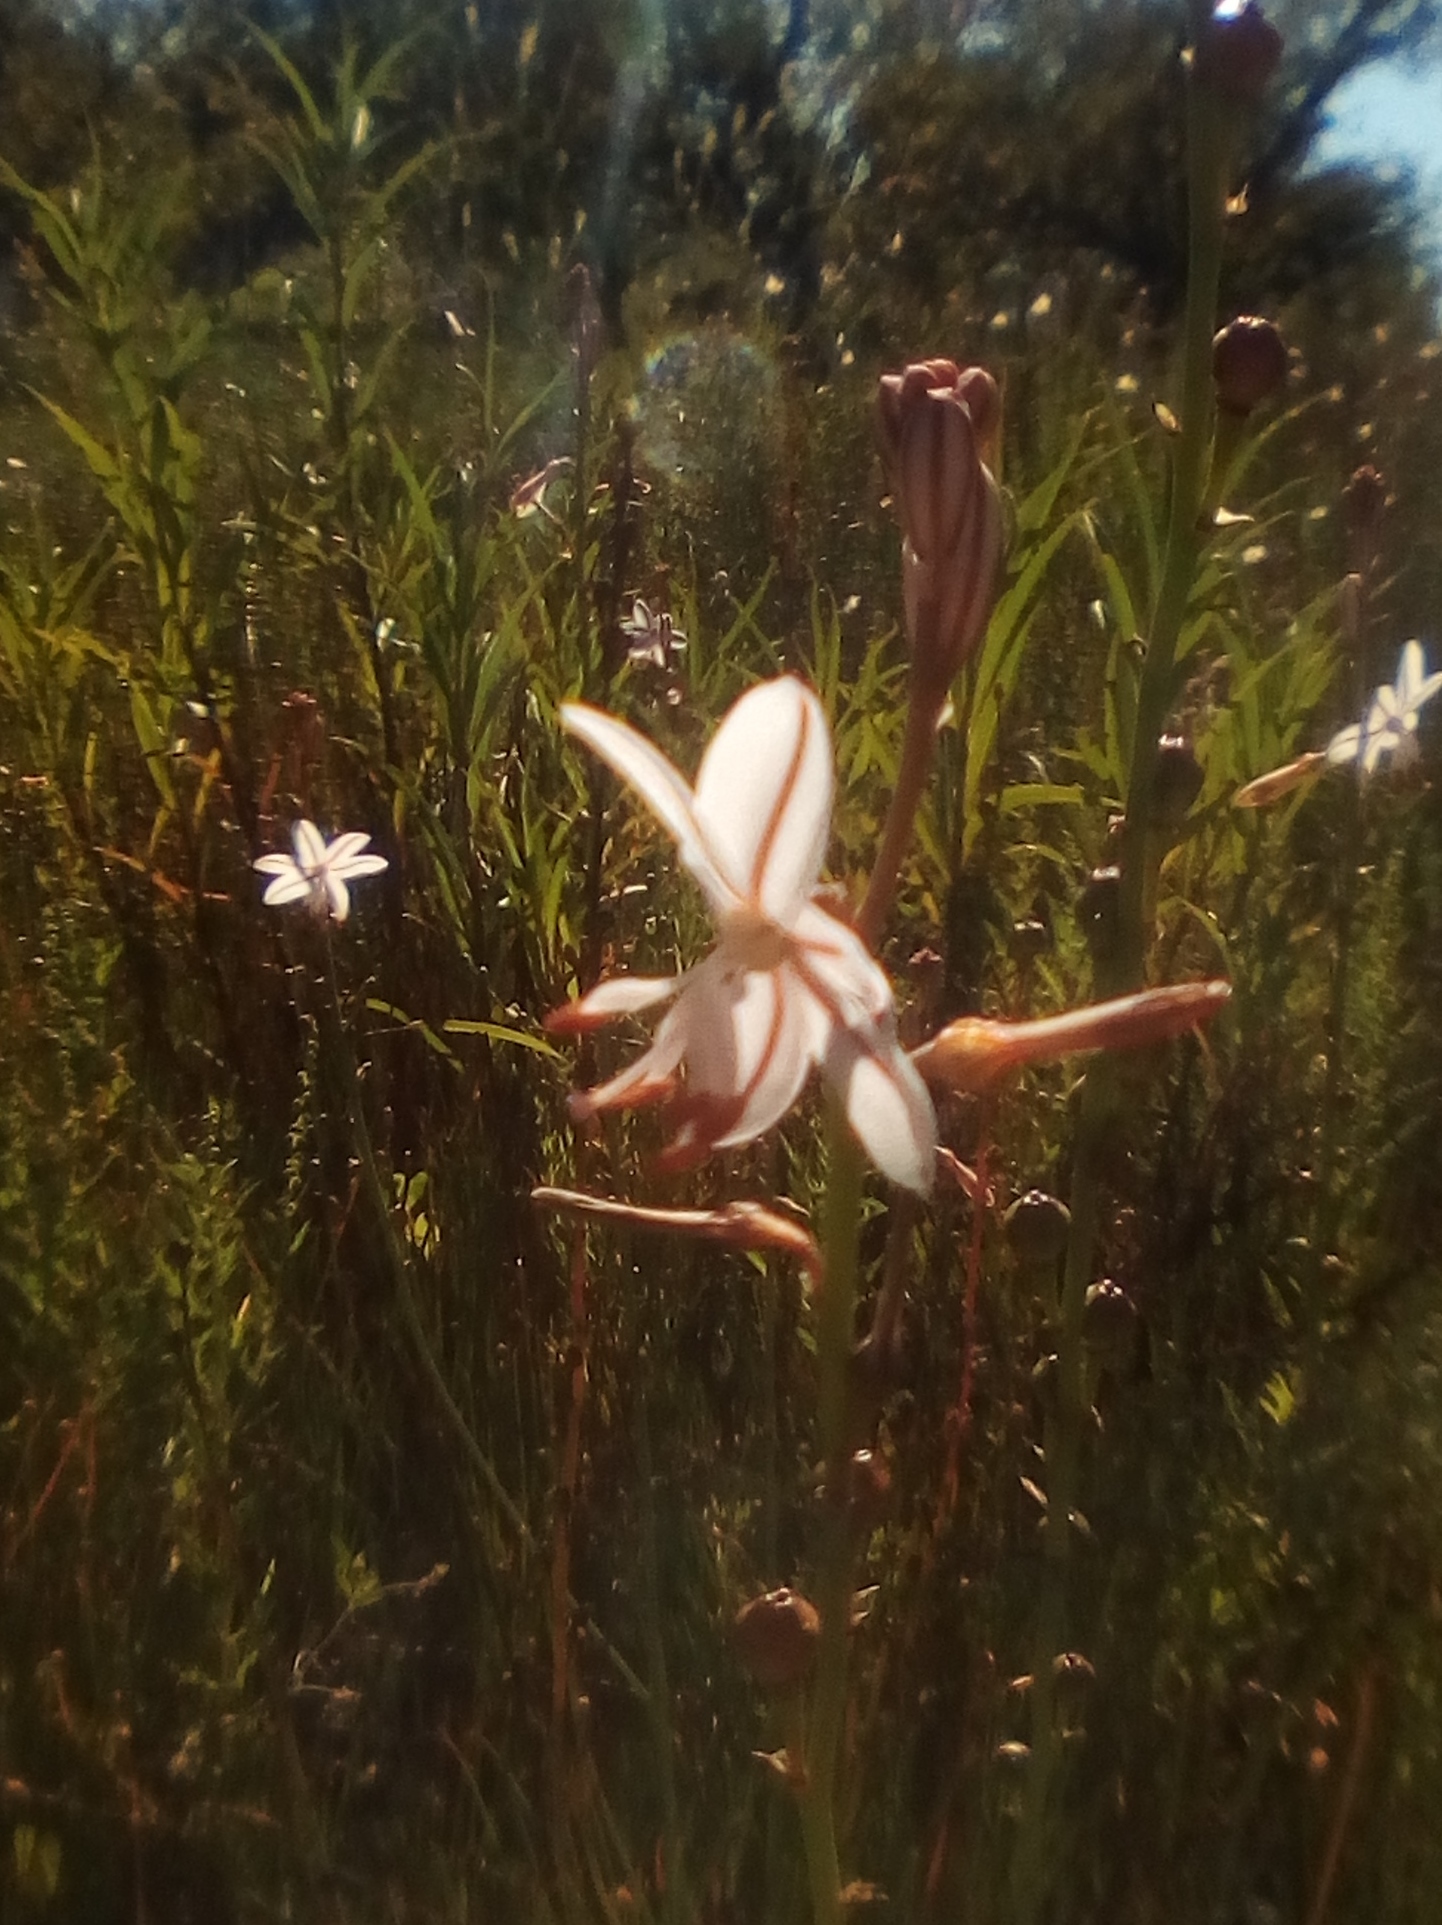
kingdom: Plantae
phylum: Tracheophyta
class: Liliopsida
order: Asparagales
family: Asphodelaceae
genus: Asphodelus
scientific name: Asphodelus fistulosus
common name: Onionweed
